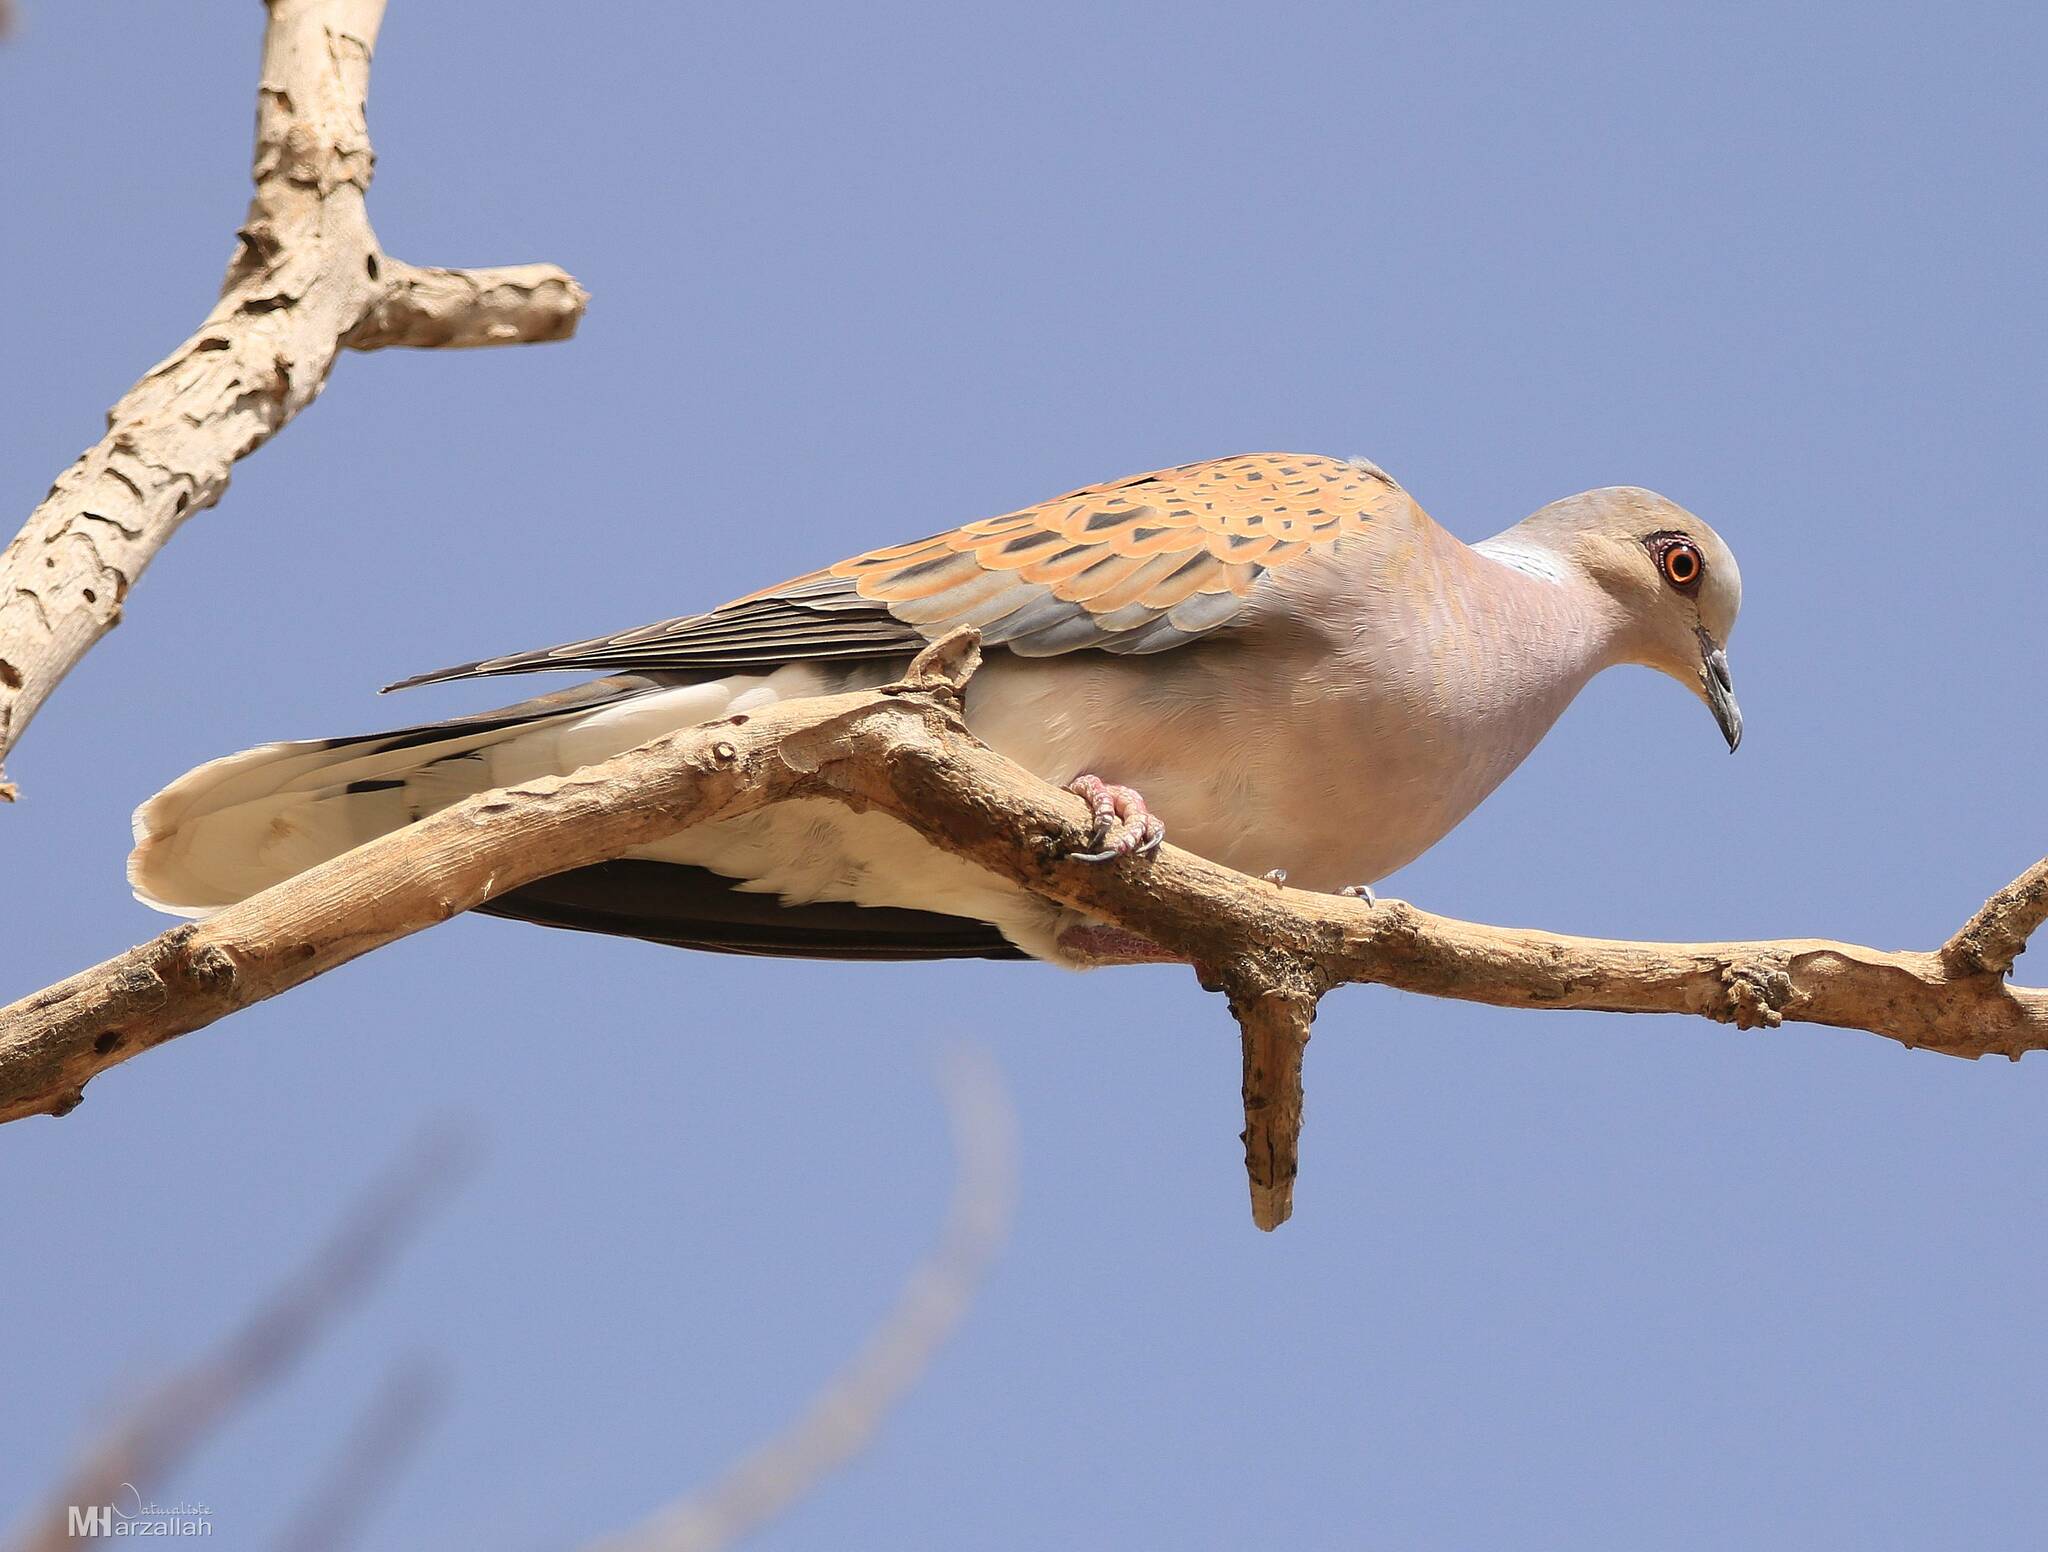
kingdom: Animalia
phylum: Chordata
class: Aves
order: Columbiformes
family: Columbidae
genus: Streptopelia
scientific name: Streptopelia turtur
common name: European turtle dove
